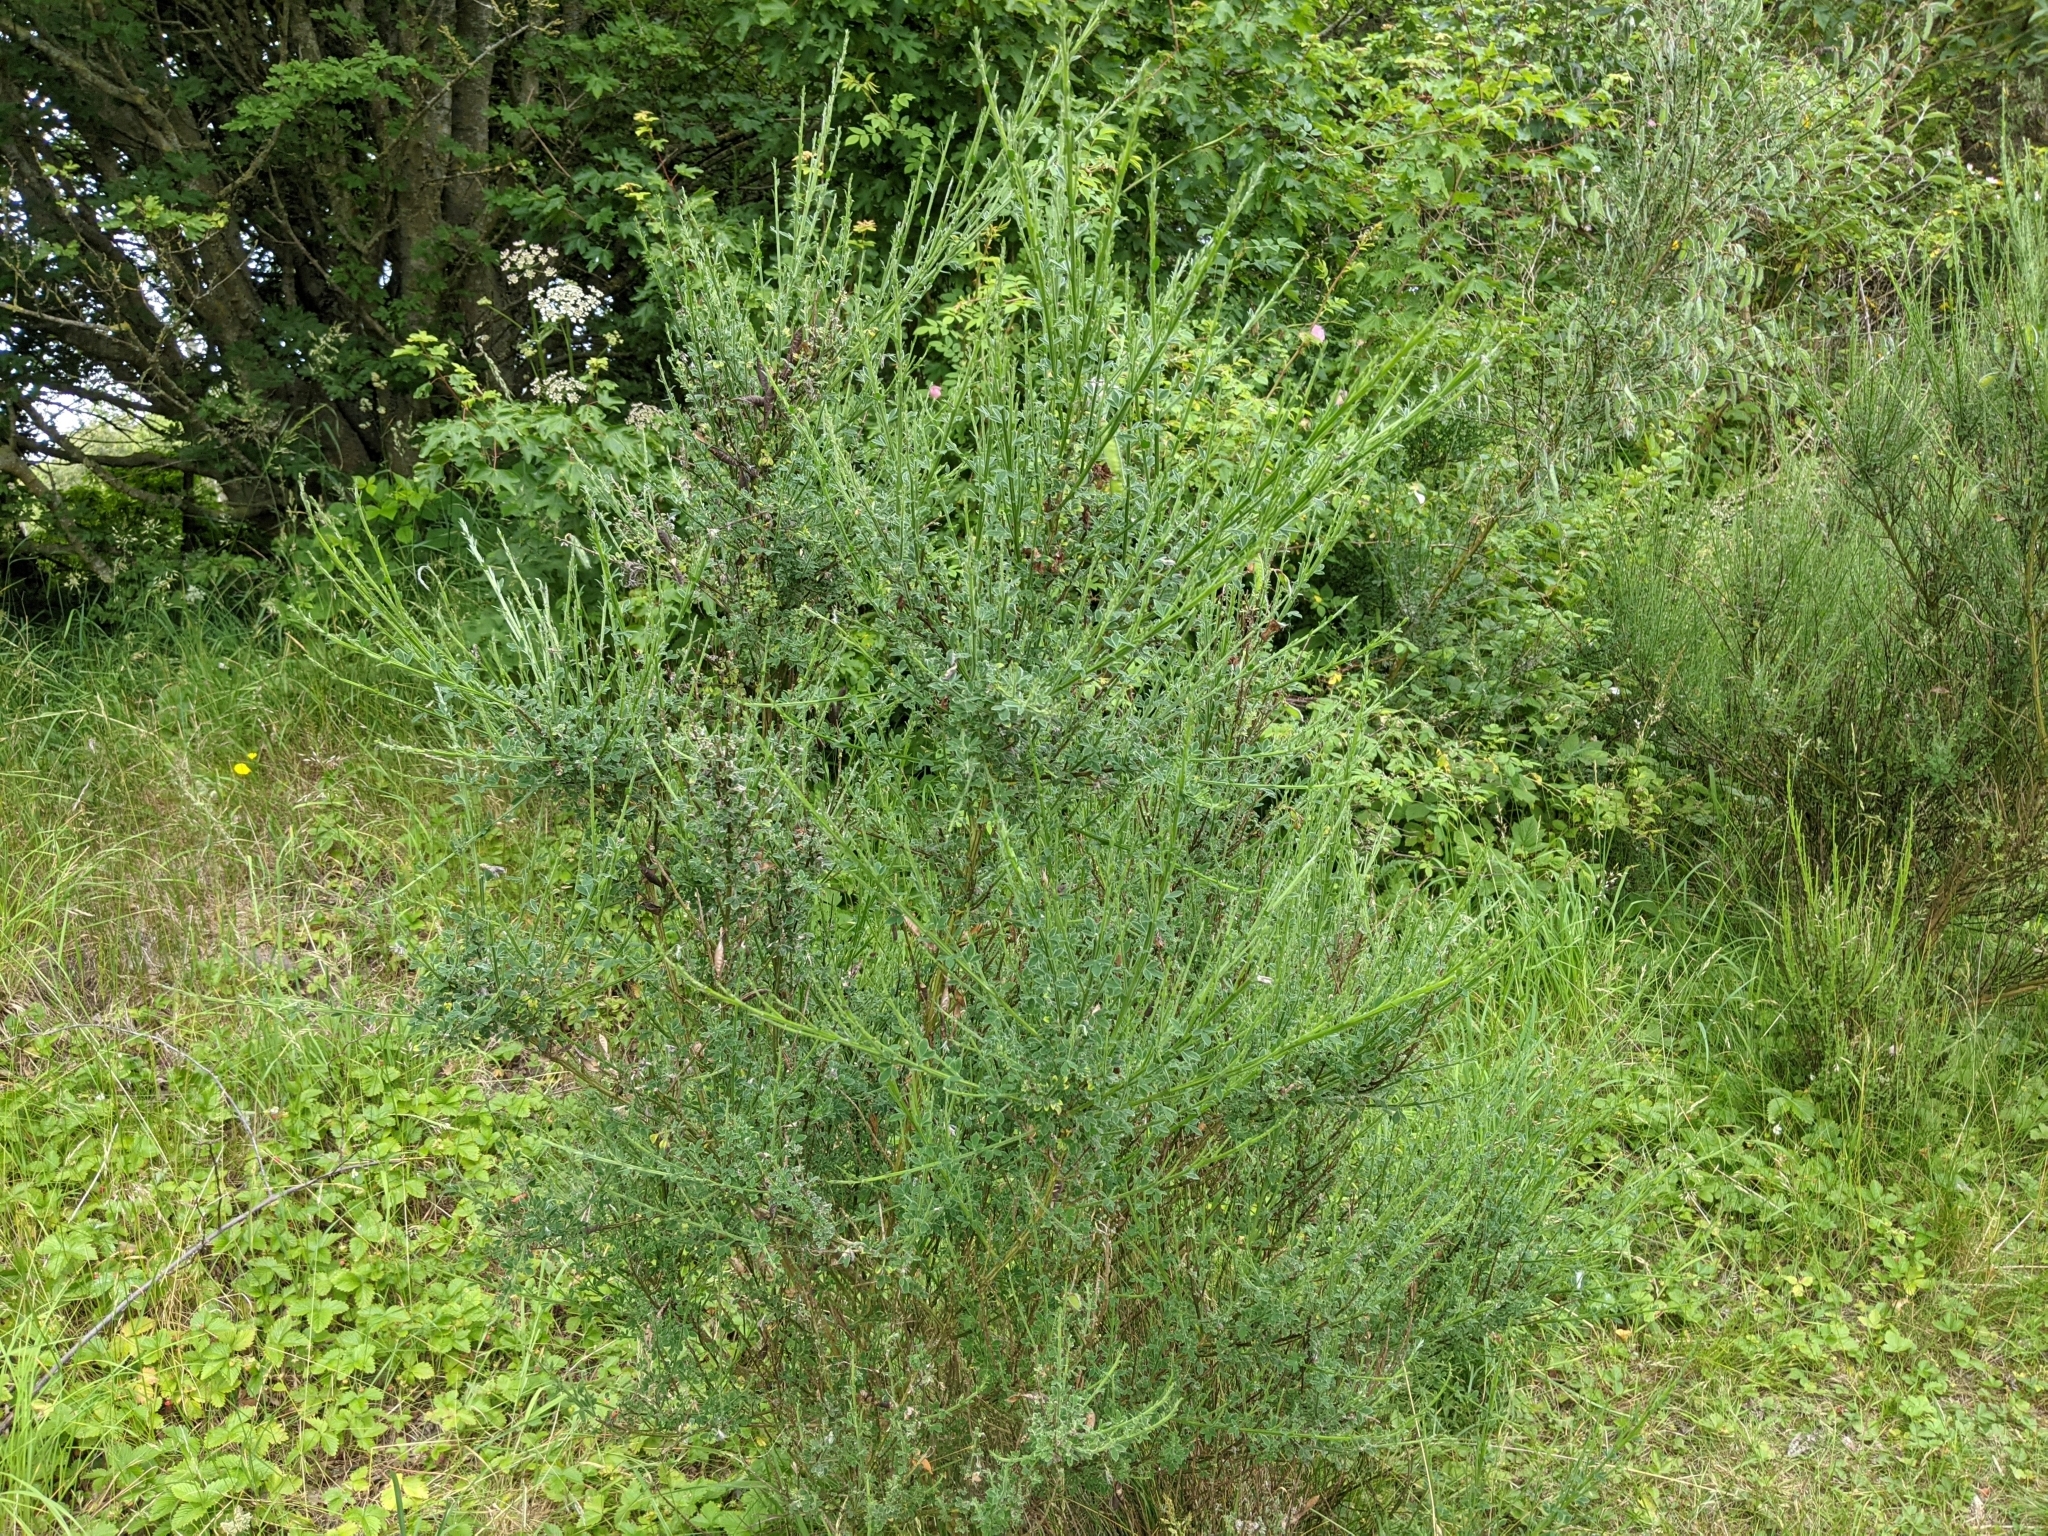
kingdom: Plantae
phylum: Tracheophyta
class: Magnoliopsida
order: Fabales
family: Fabaceae
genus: Cytisus
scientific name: Cytisus scoparius
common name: Scotch broom
